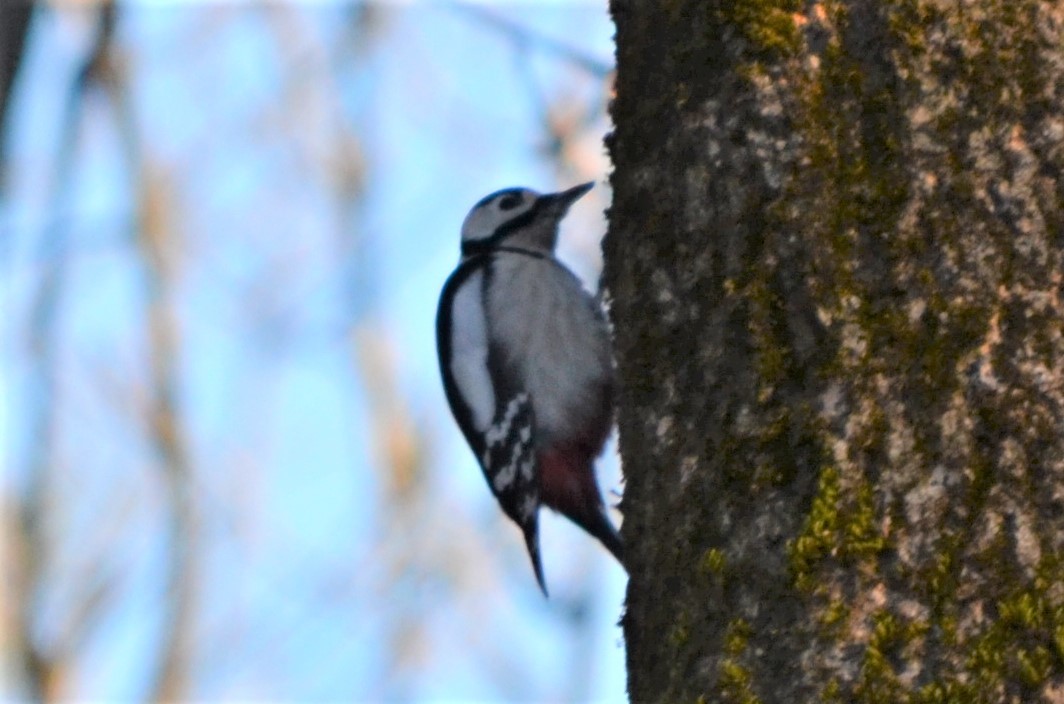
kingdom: Animalia
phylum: Chordata
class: Aves
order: Piciformes
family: Picidae
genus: Dendrocopos
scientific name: Dendrocopos major
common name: Great spotted woodpecker
